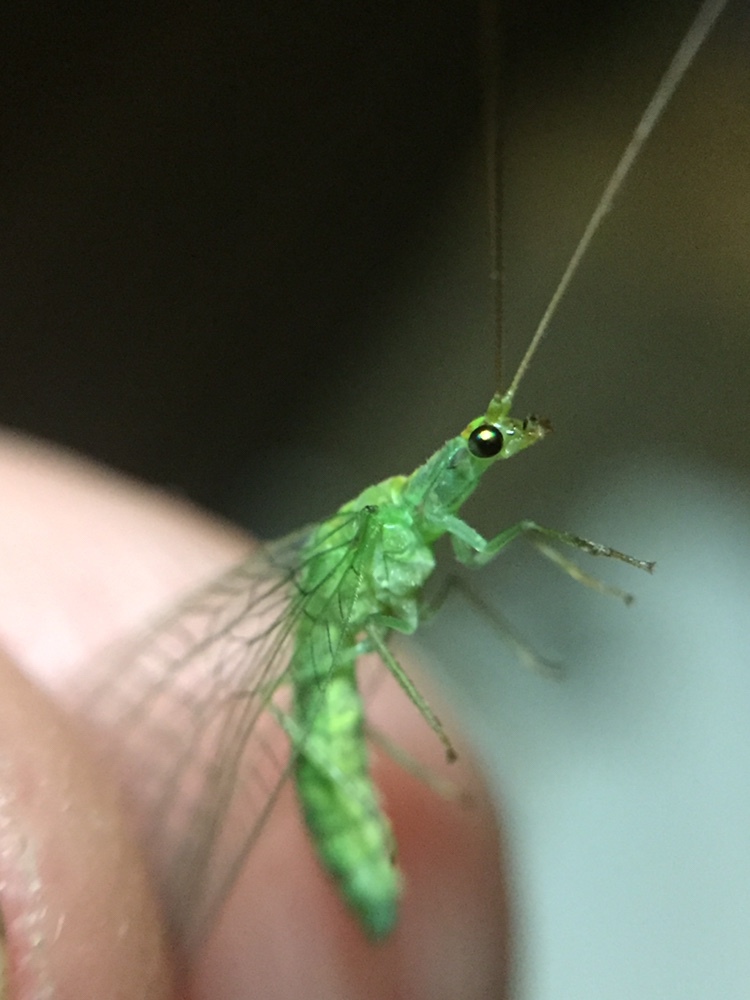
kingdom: Animalia
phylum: Arthropoda
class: Insecta
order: Neuroptera
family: Chrysopidae
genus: Mallada
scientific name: Mallada basalis
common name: Green lacewing
